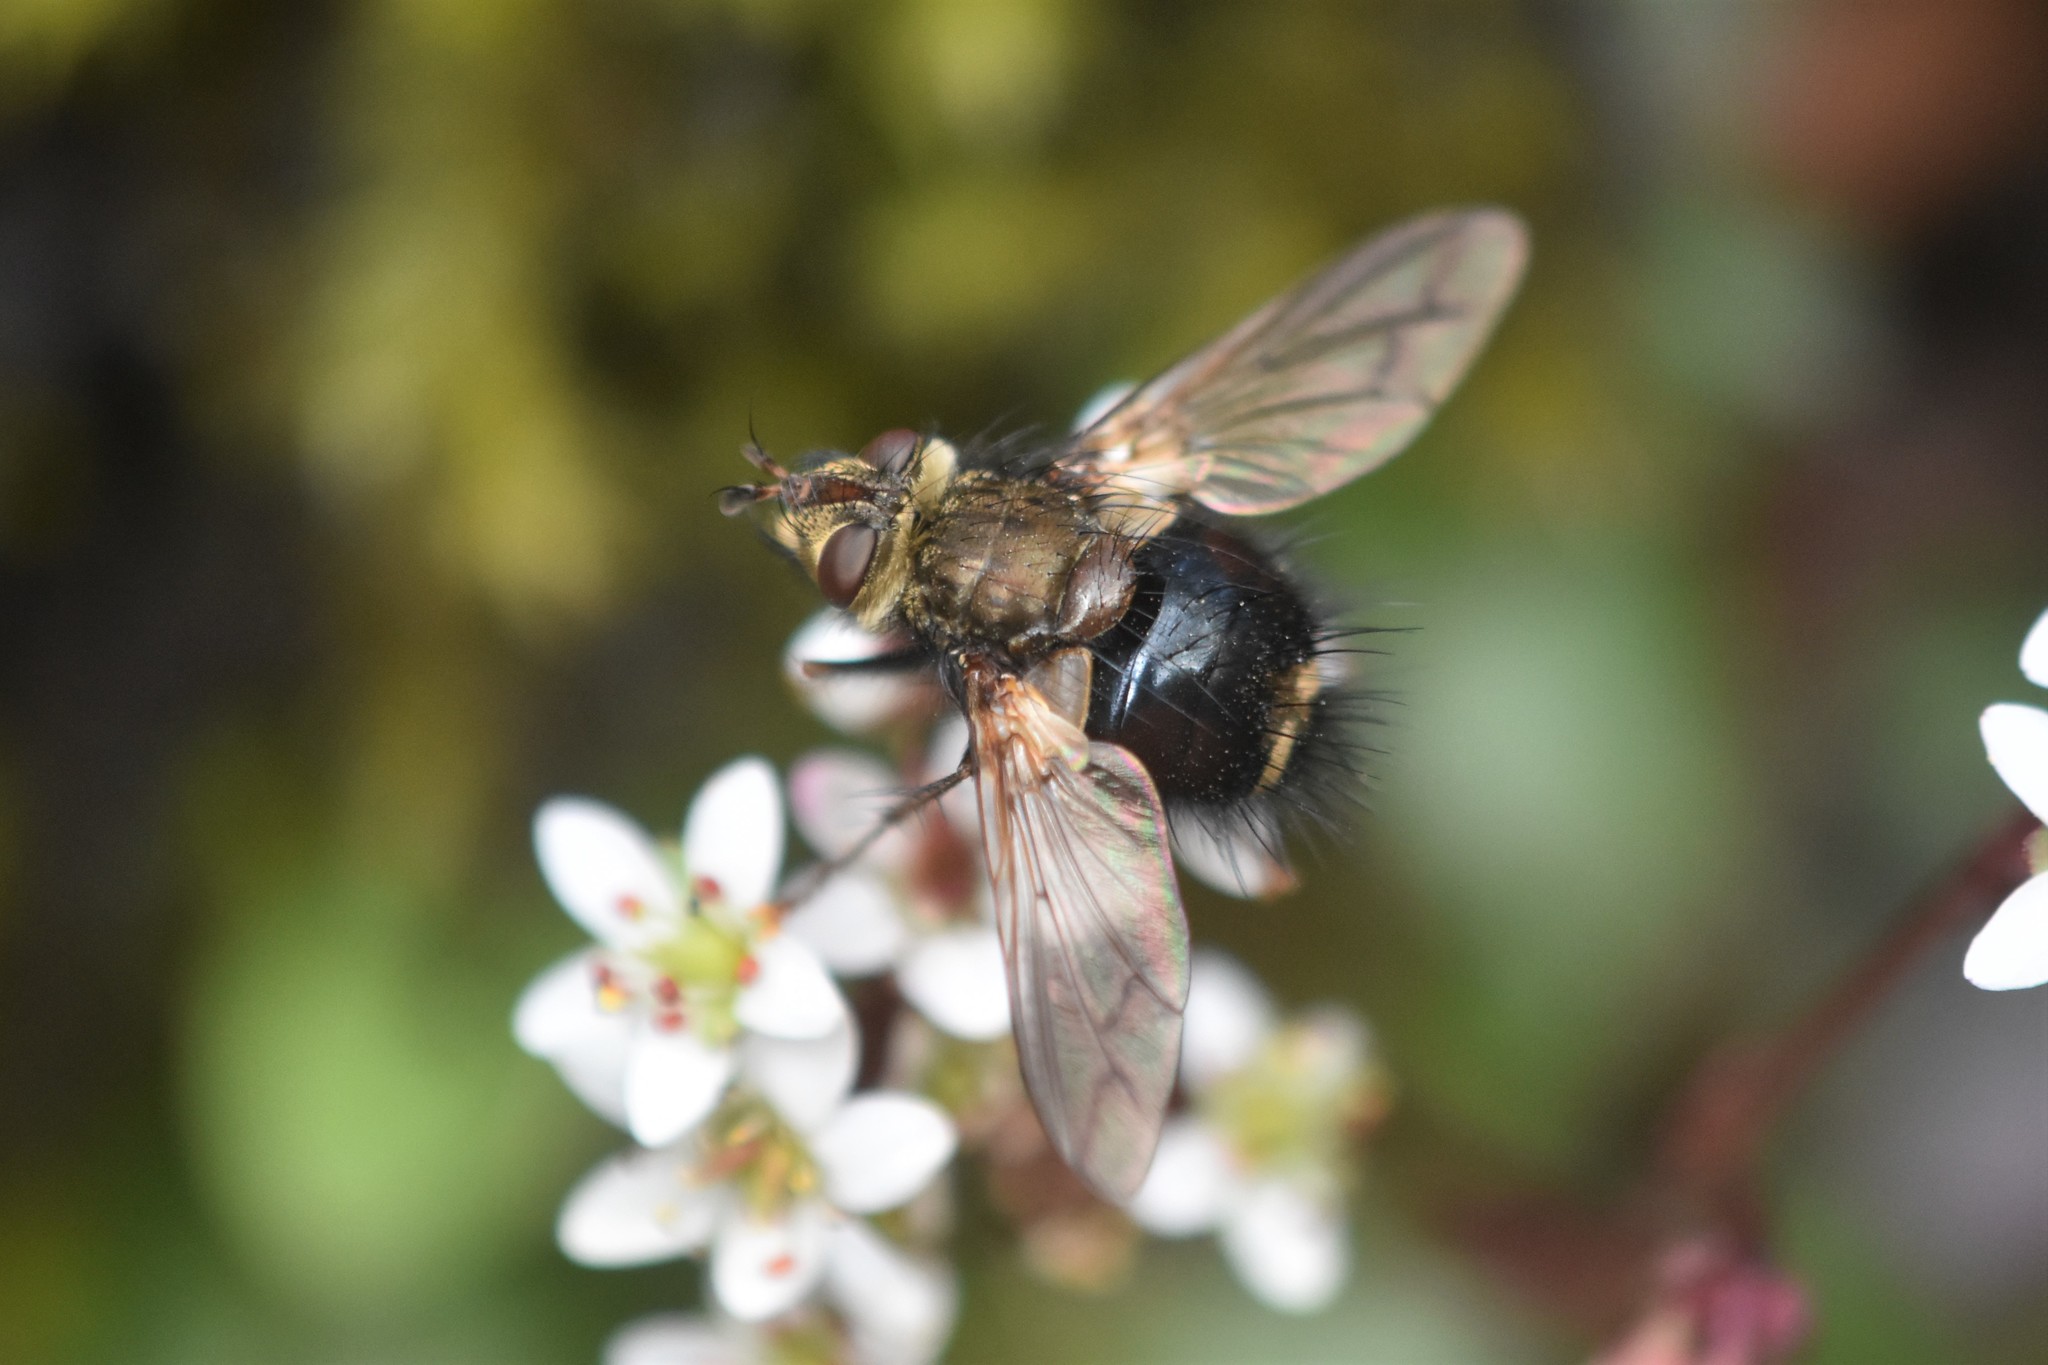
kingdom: Animalia
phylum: Arthropoda
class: Insecta
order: Diptera
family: Tachinidae
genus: Epalpus
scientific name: Epalpus signifer
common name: Early tachinid fly
